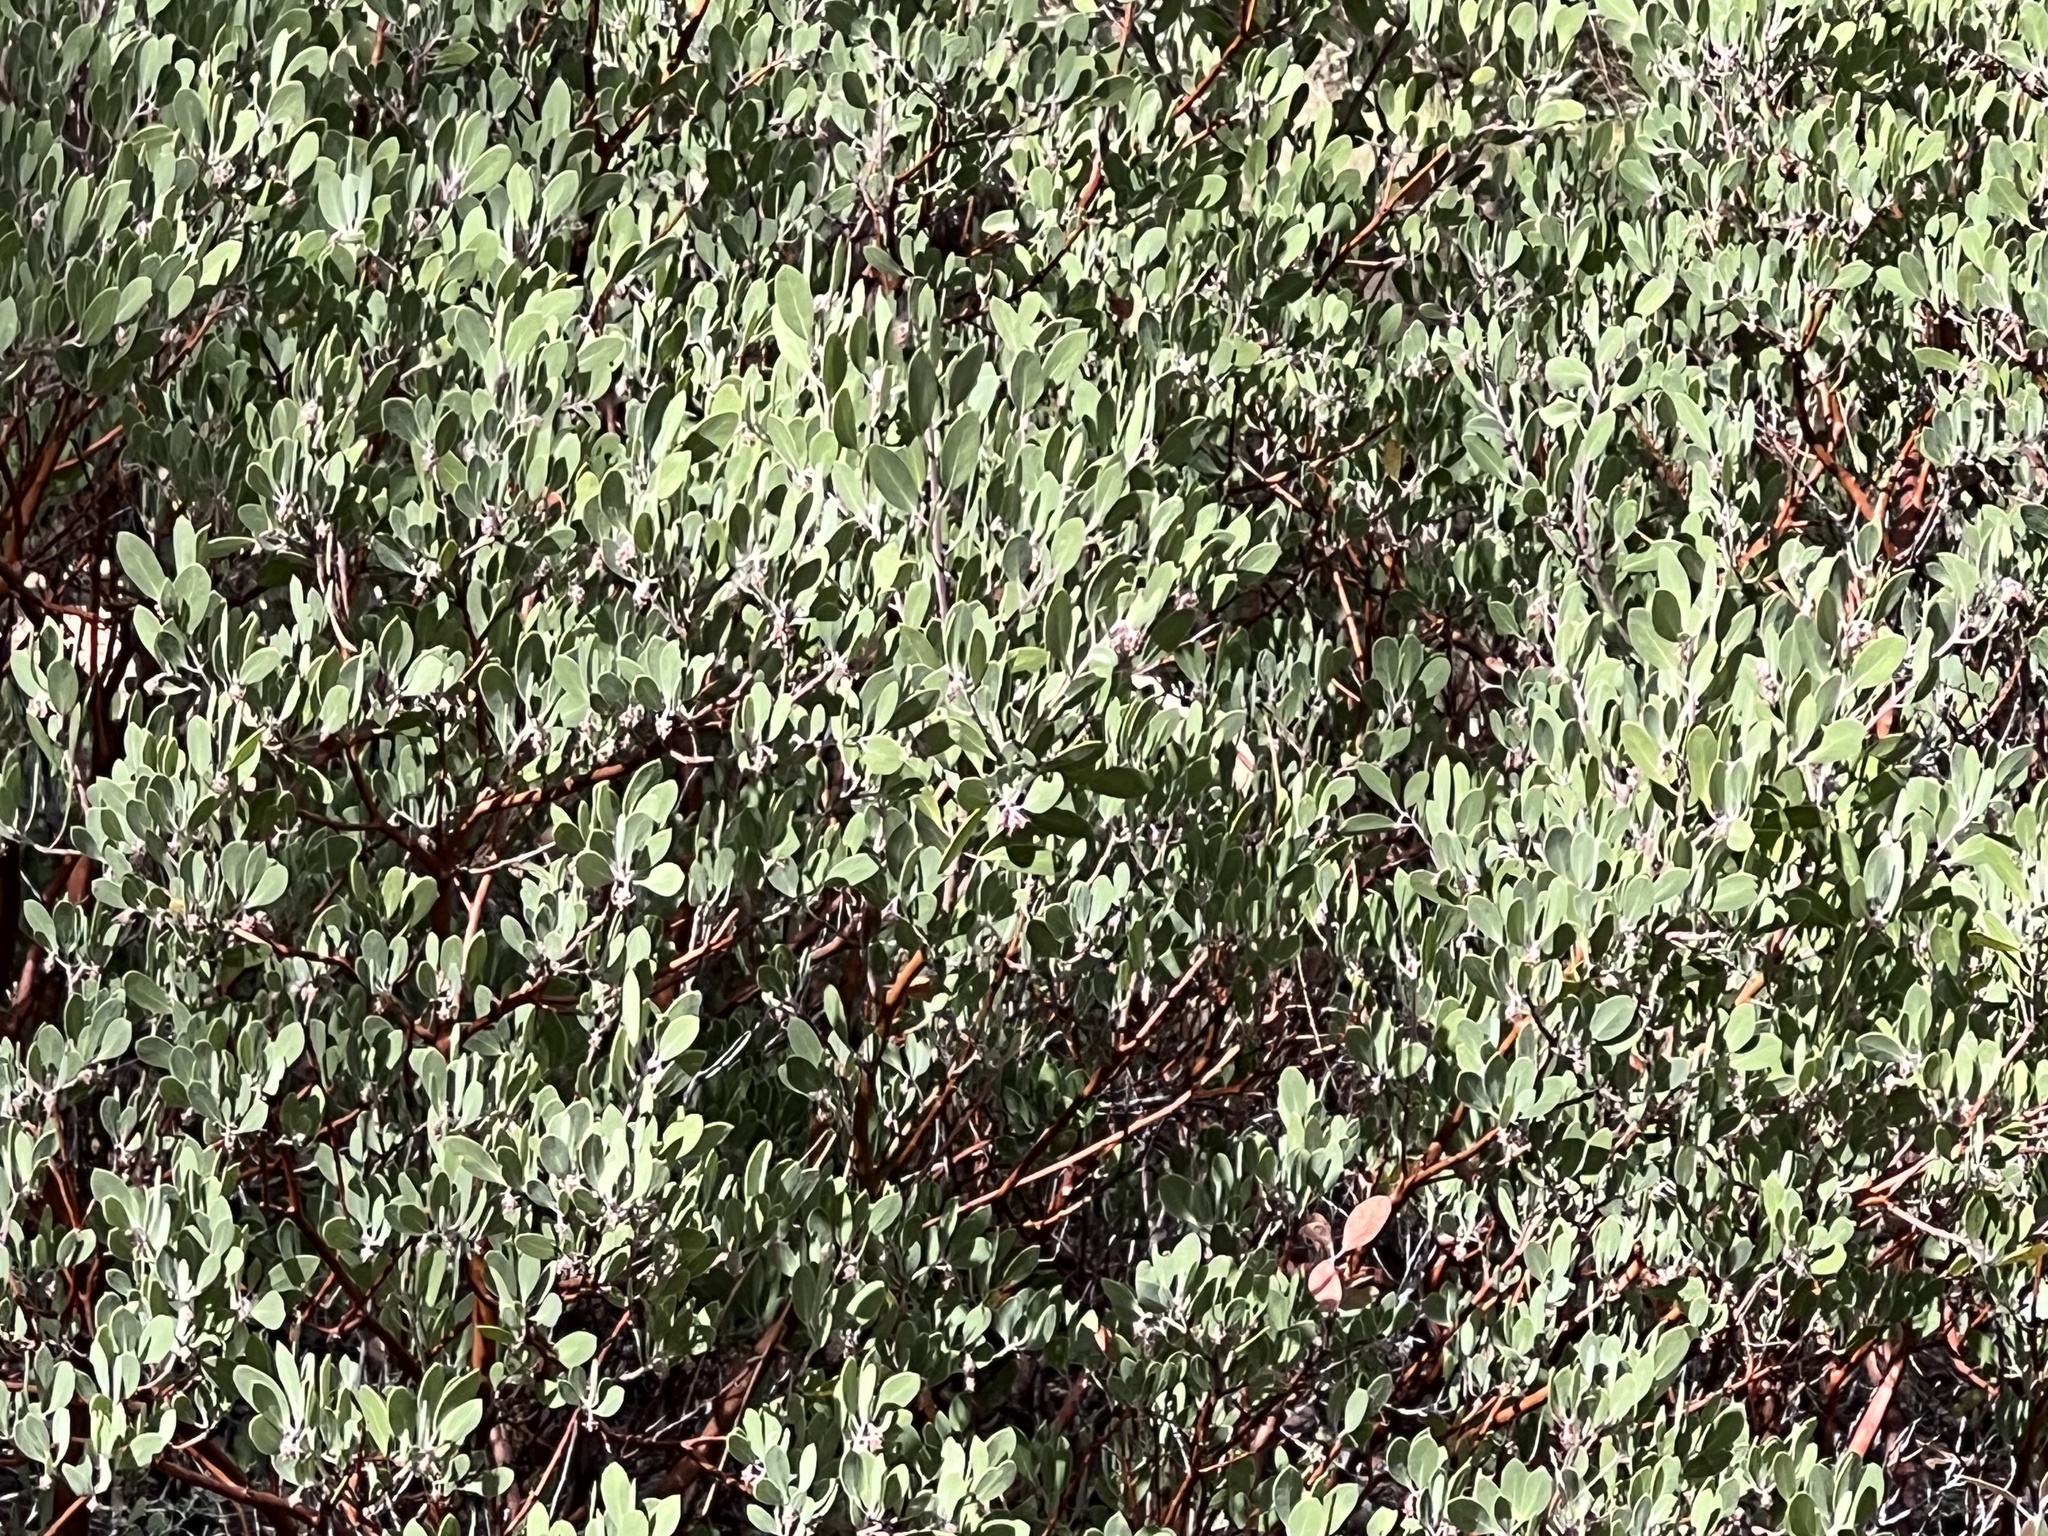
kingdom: Plantae
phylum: Tracheophyta
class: Magnoliopsida
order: Ericales
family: Ericaceae
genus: Arctostaphylos
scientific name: Arctostaphylos pungens
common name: Mexican manzanita
